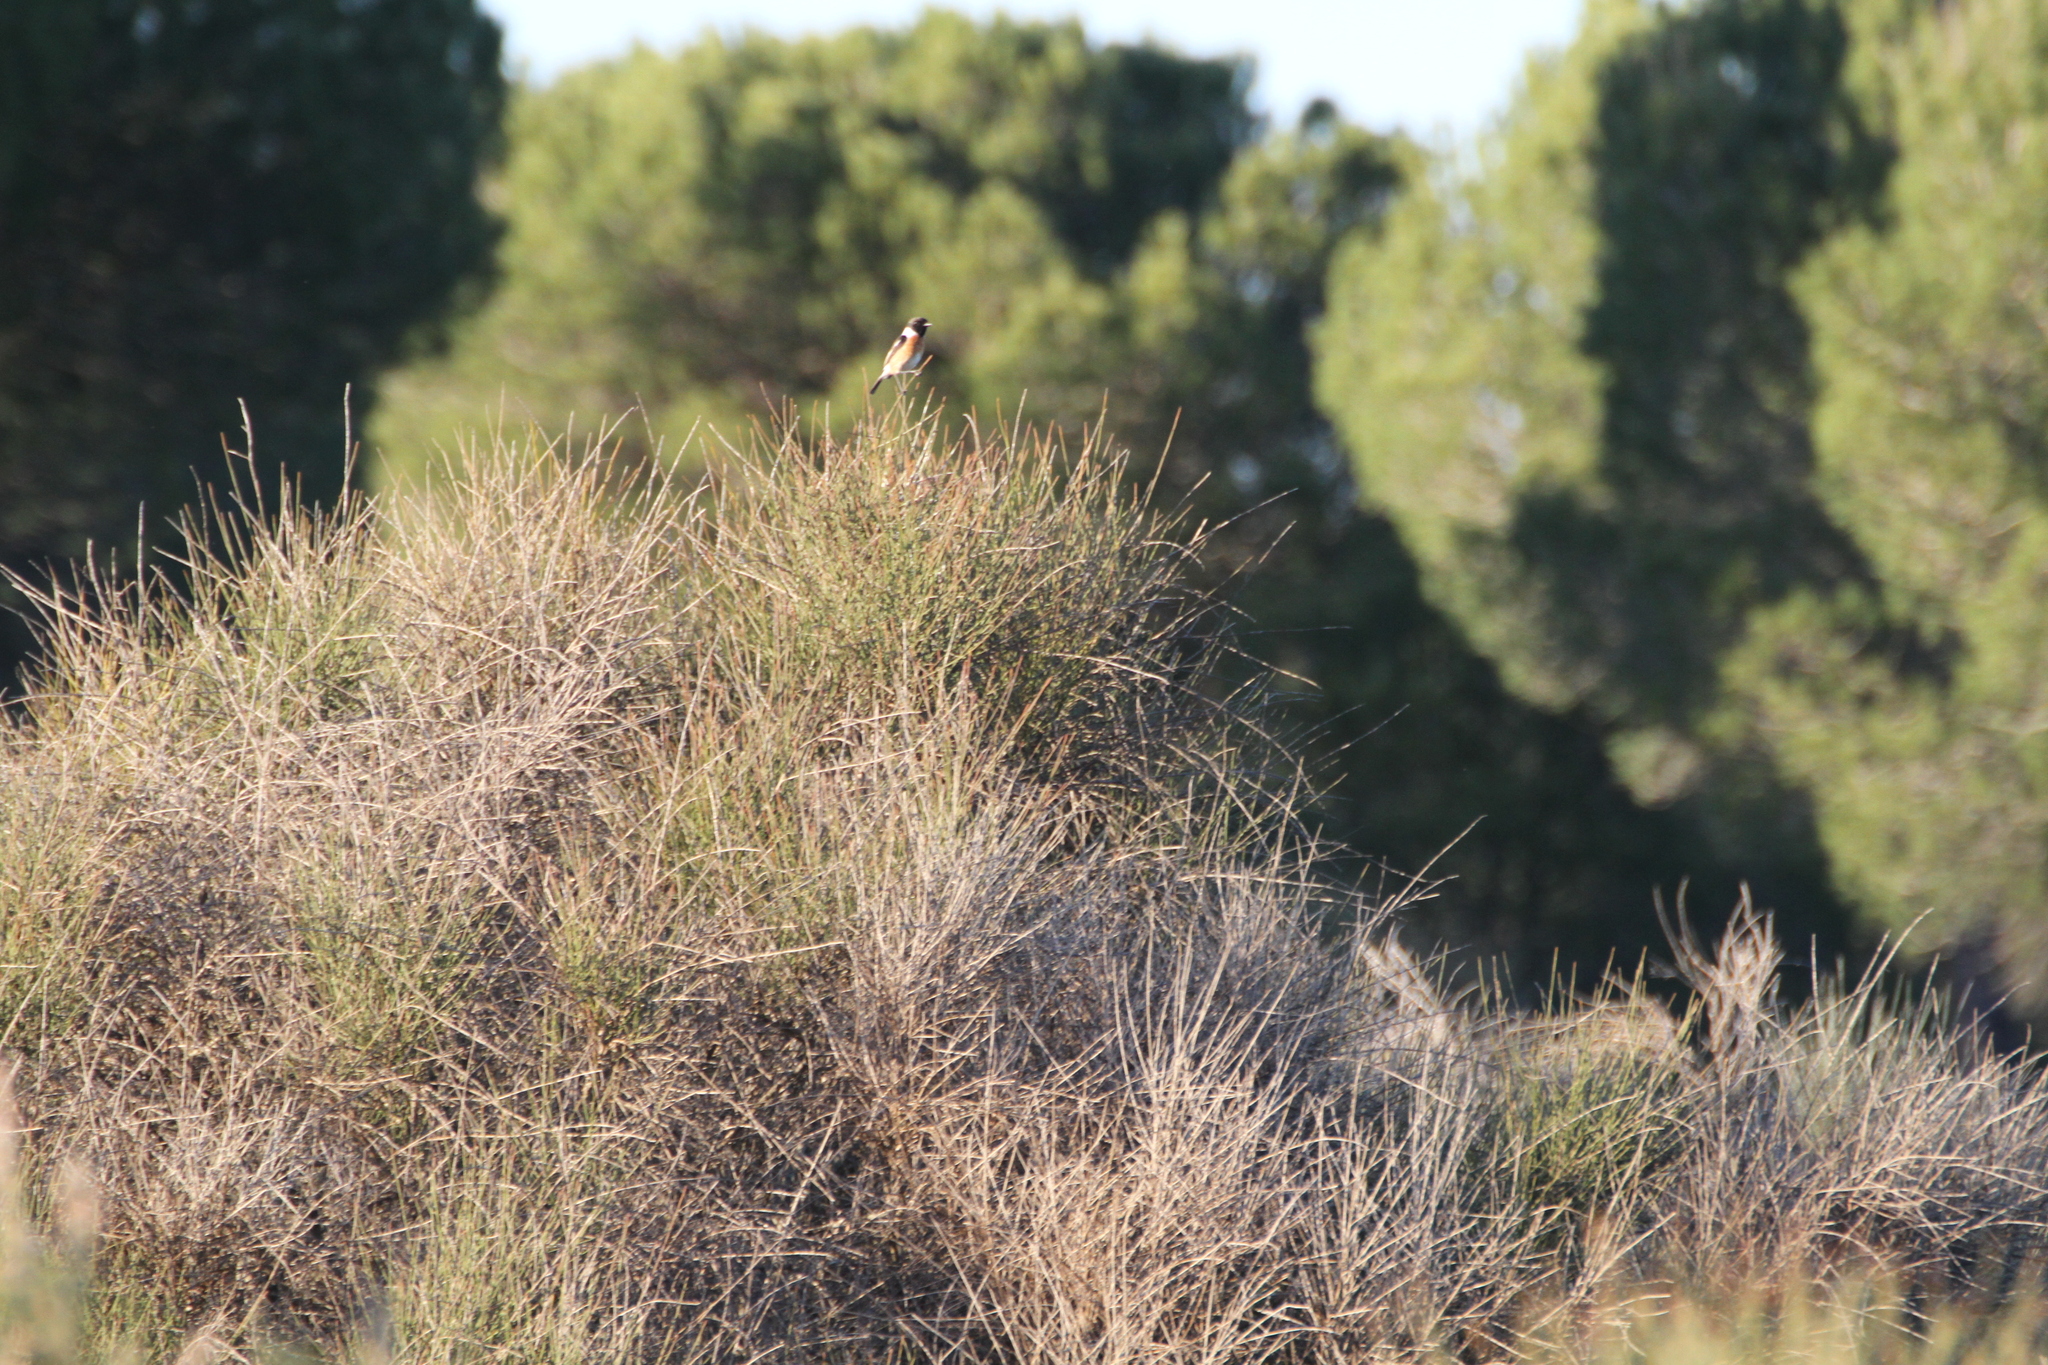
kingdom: Animalia
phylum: Chordata
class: Aves
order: Passeriformes
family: Muscicapidae
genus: Saxicola
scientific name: Saxicola rubicola
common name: European stonechat
